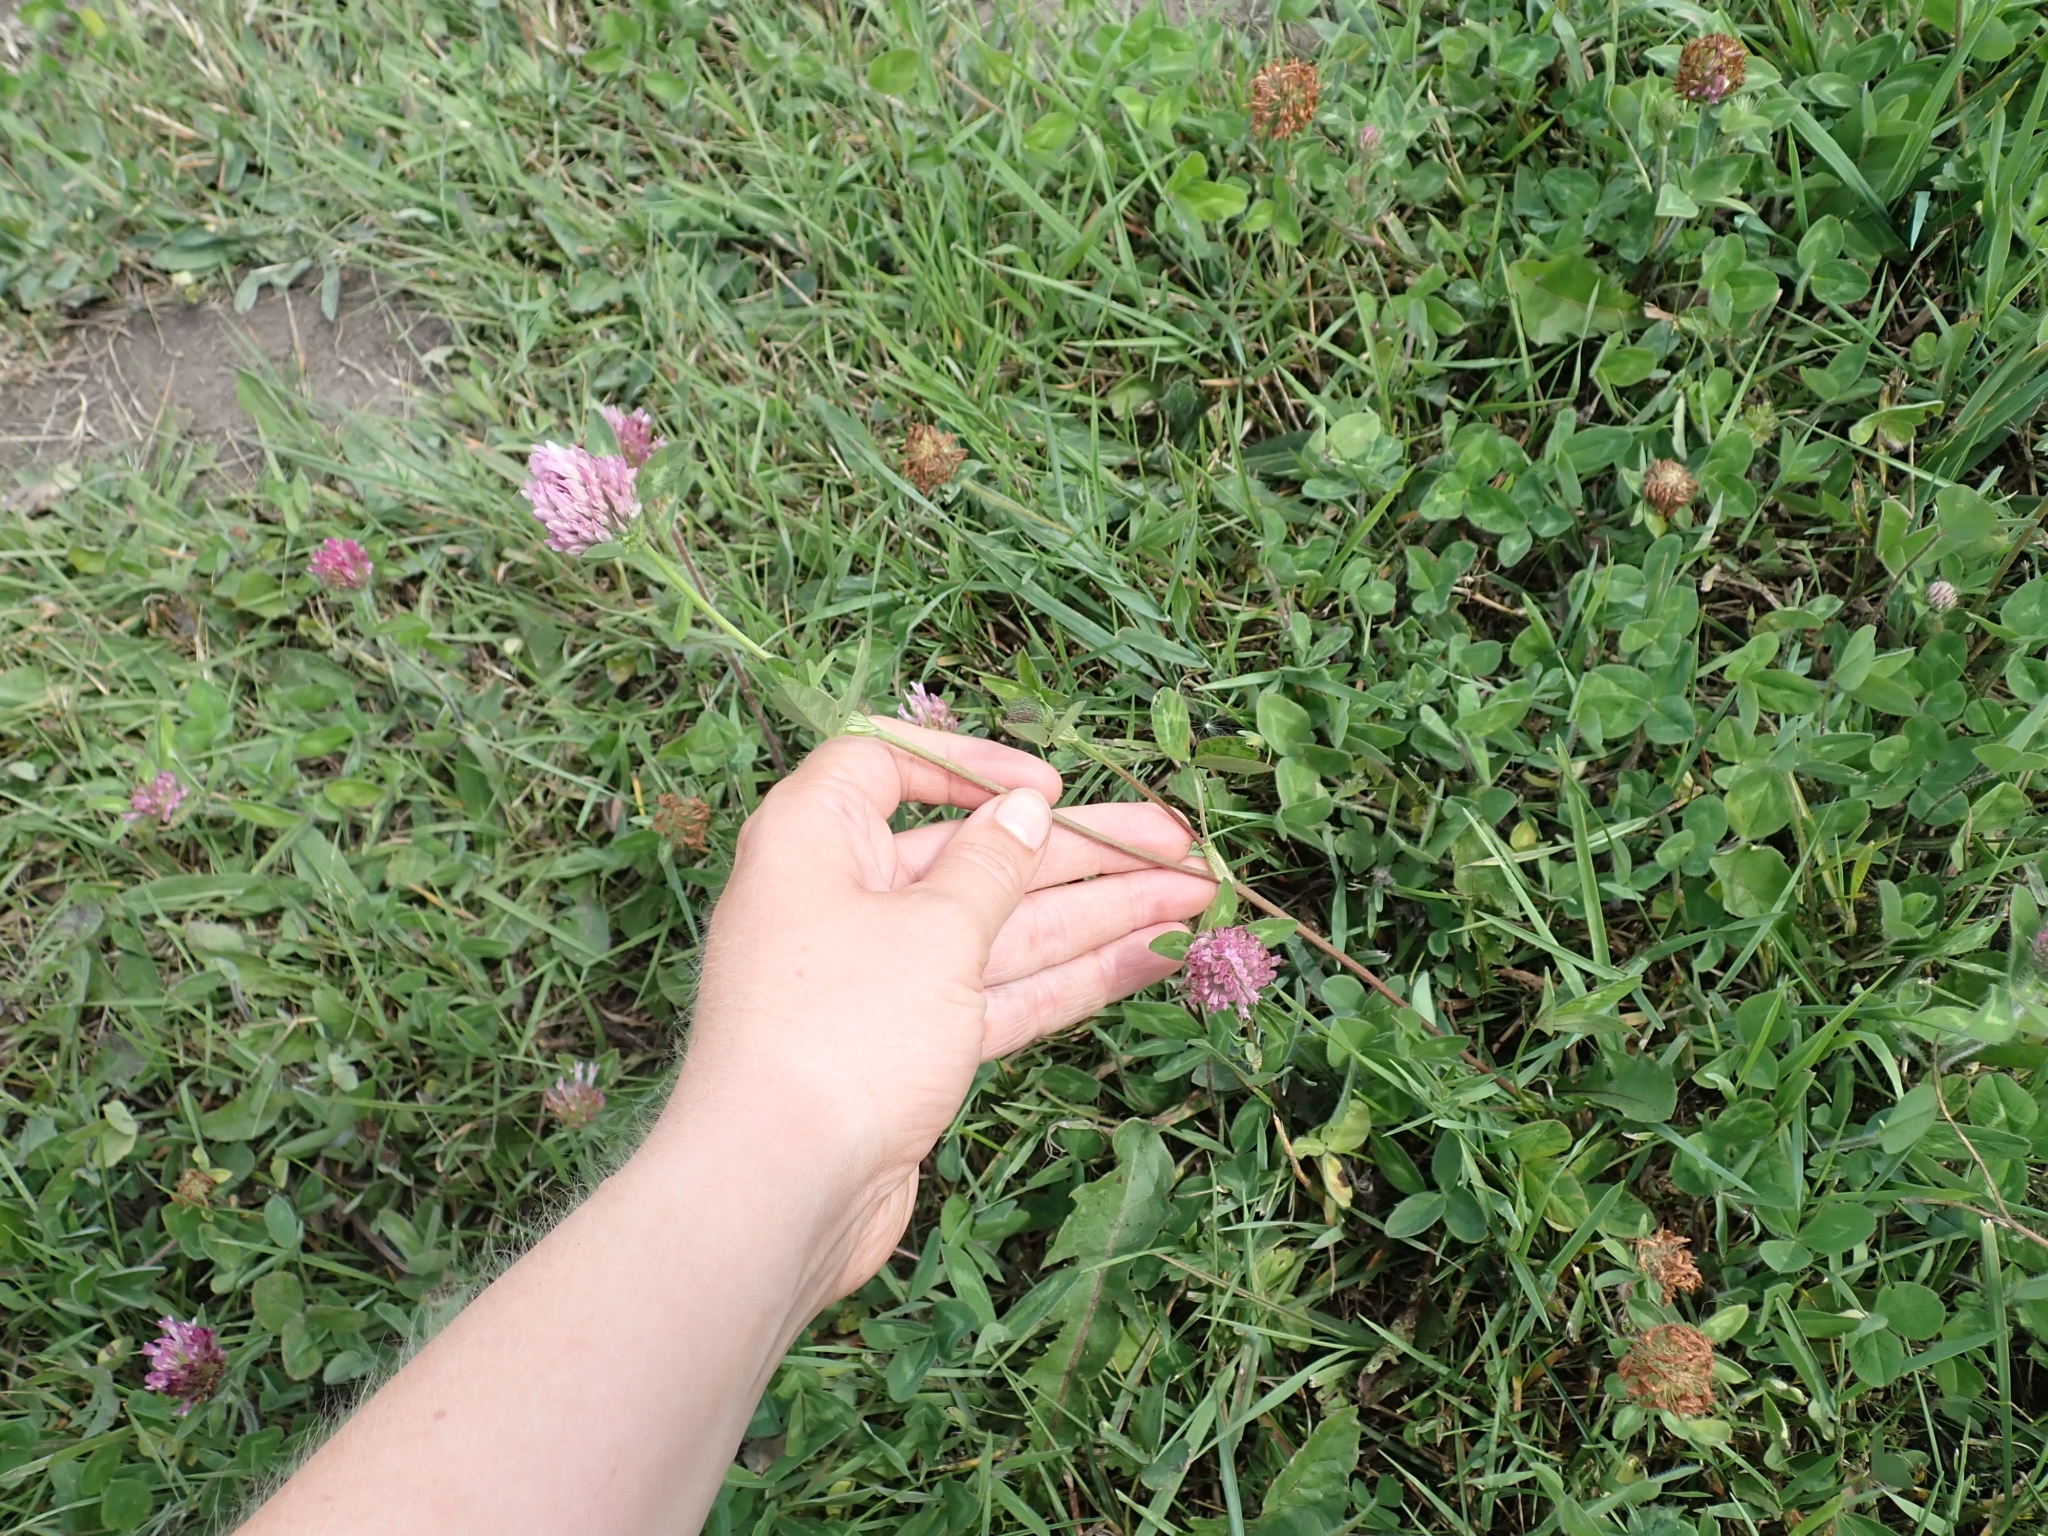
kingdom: Plantae
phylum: Tracheophyta
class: Magnoliopsida
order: Fabales
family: Fabaceae
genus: Trifolium
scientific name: Trifolium pratense
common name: Red clover
